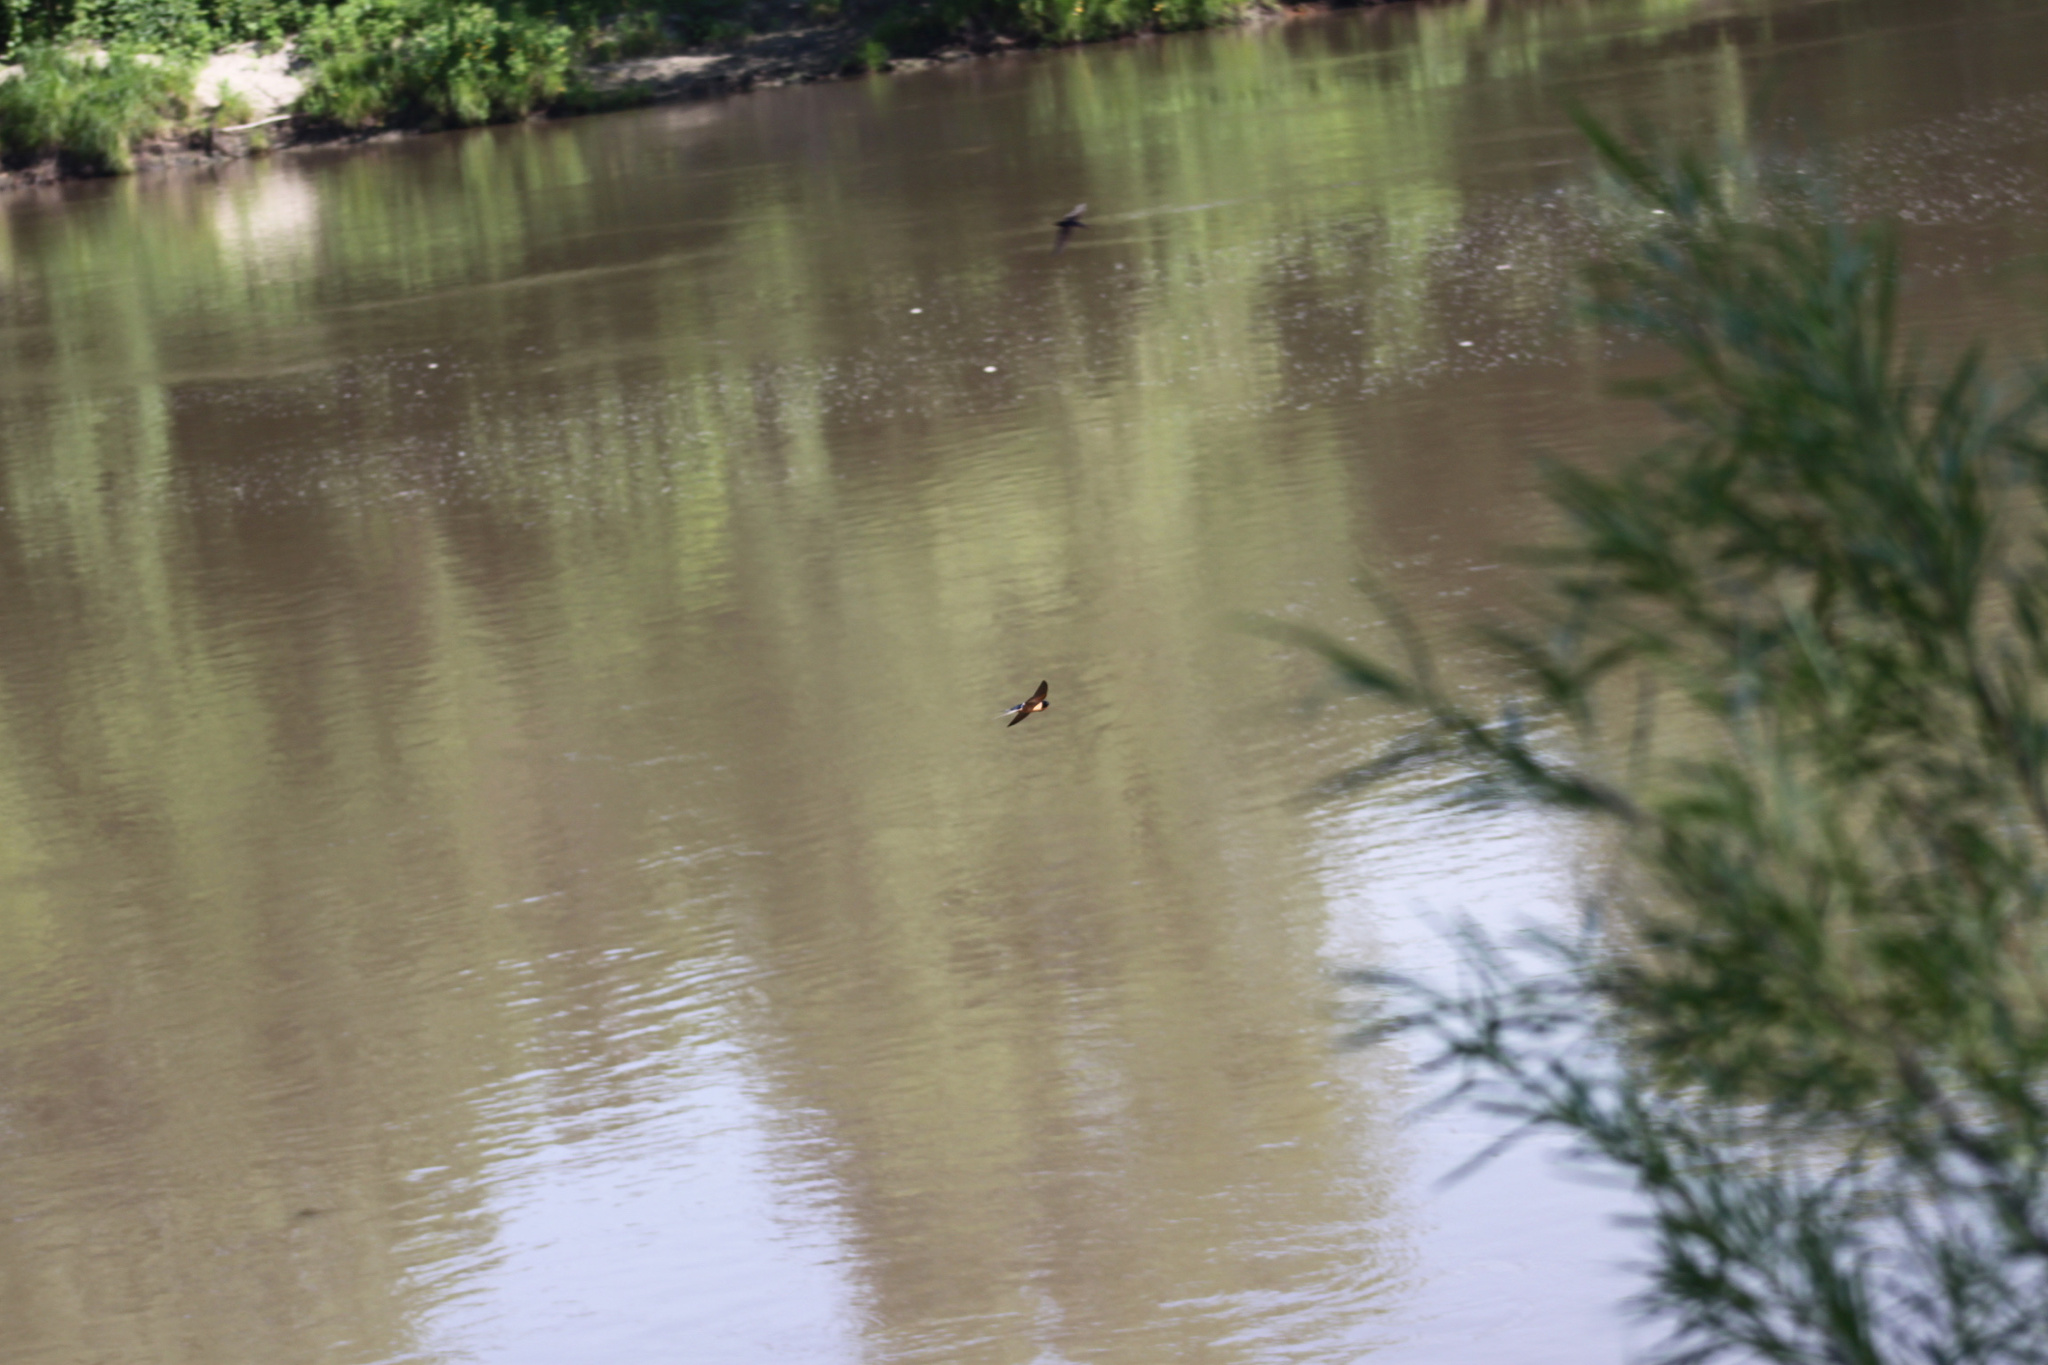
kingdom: Animalia
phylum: Chordata
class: Aves
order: Passeriformes
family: Hirundinidae
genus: Hirundo
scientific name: Hirundo rustica
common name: Barn swallow
